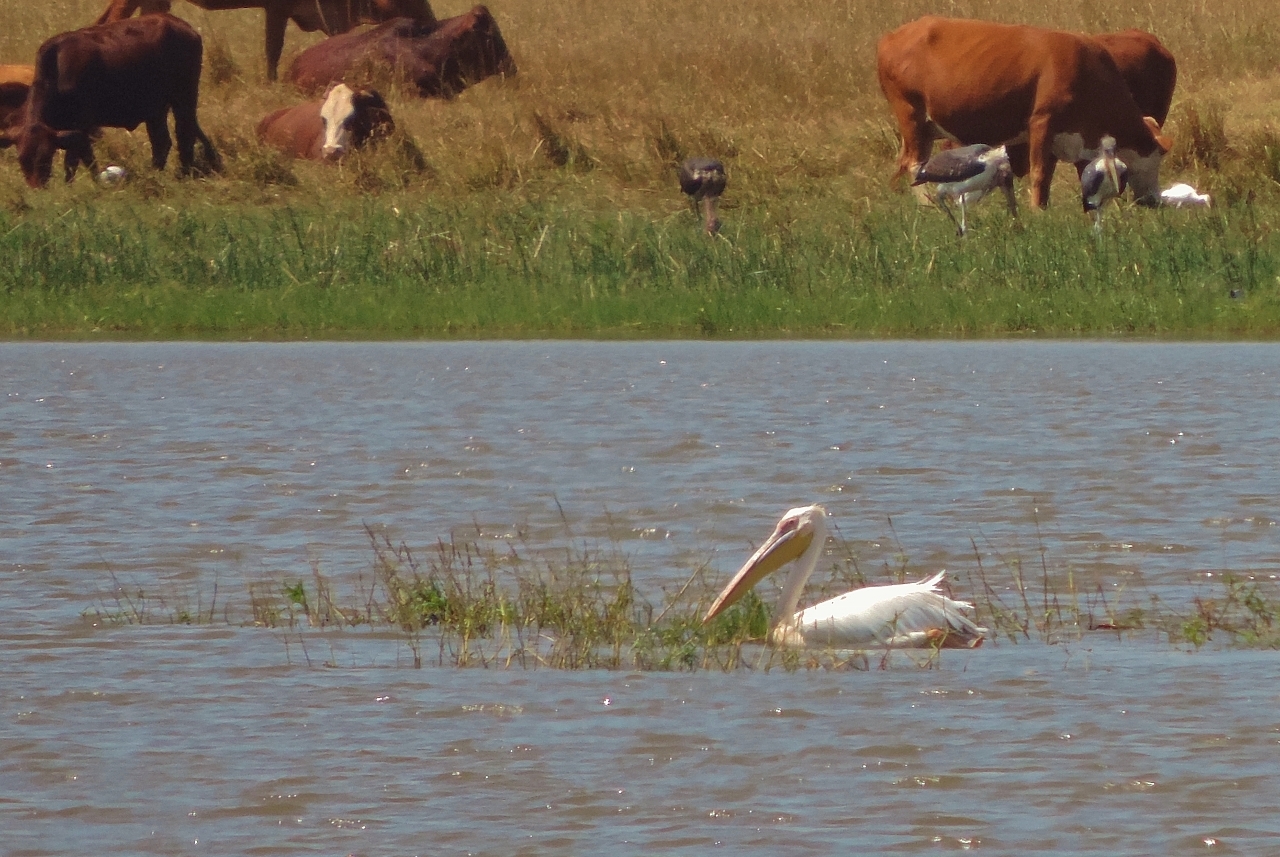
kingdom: Animalia
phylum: Chordata
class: Aves
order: Pelecaniformes
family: Pelecanidae
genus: Pelecanus
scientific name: Pelecanus onocrotalus
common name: Great white pelican
